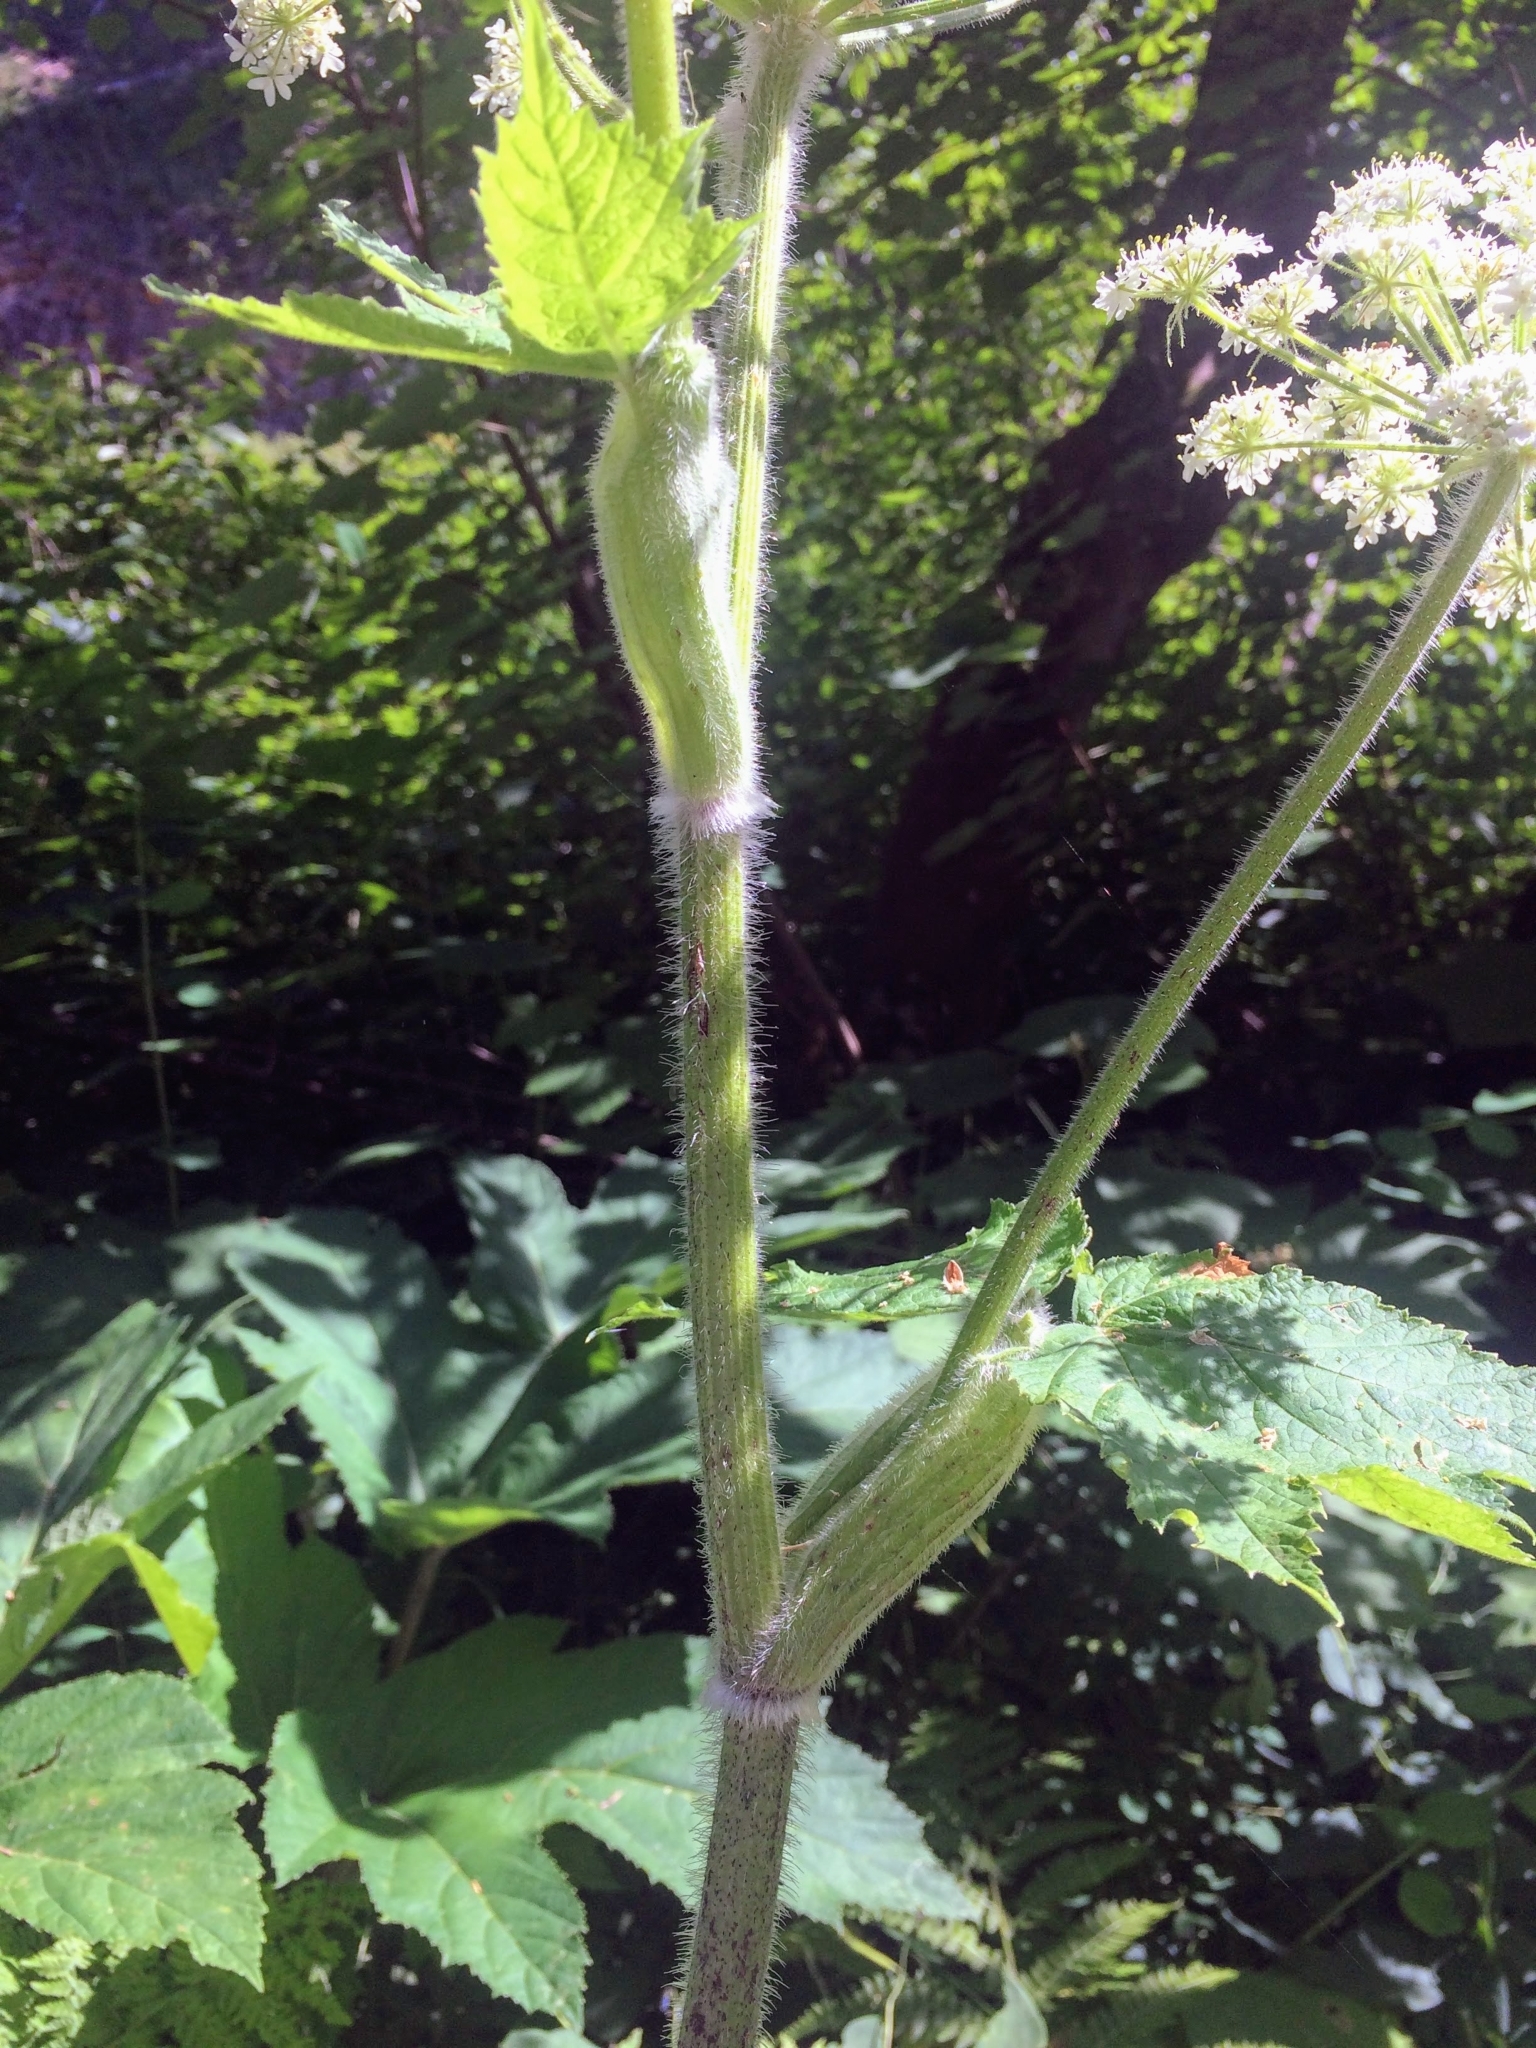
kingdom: Plantae
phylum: Tracheophyta
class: Magnoliopsida
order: Apiales
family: Apiaceae
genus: Heracleum
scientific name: Heracleum maximum
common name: American cow parsnip
